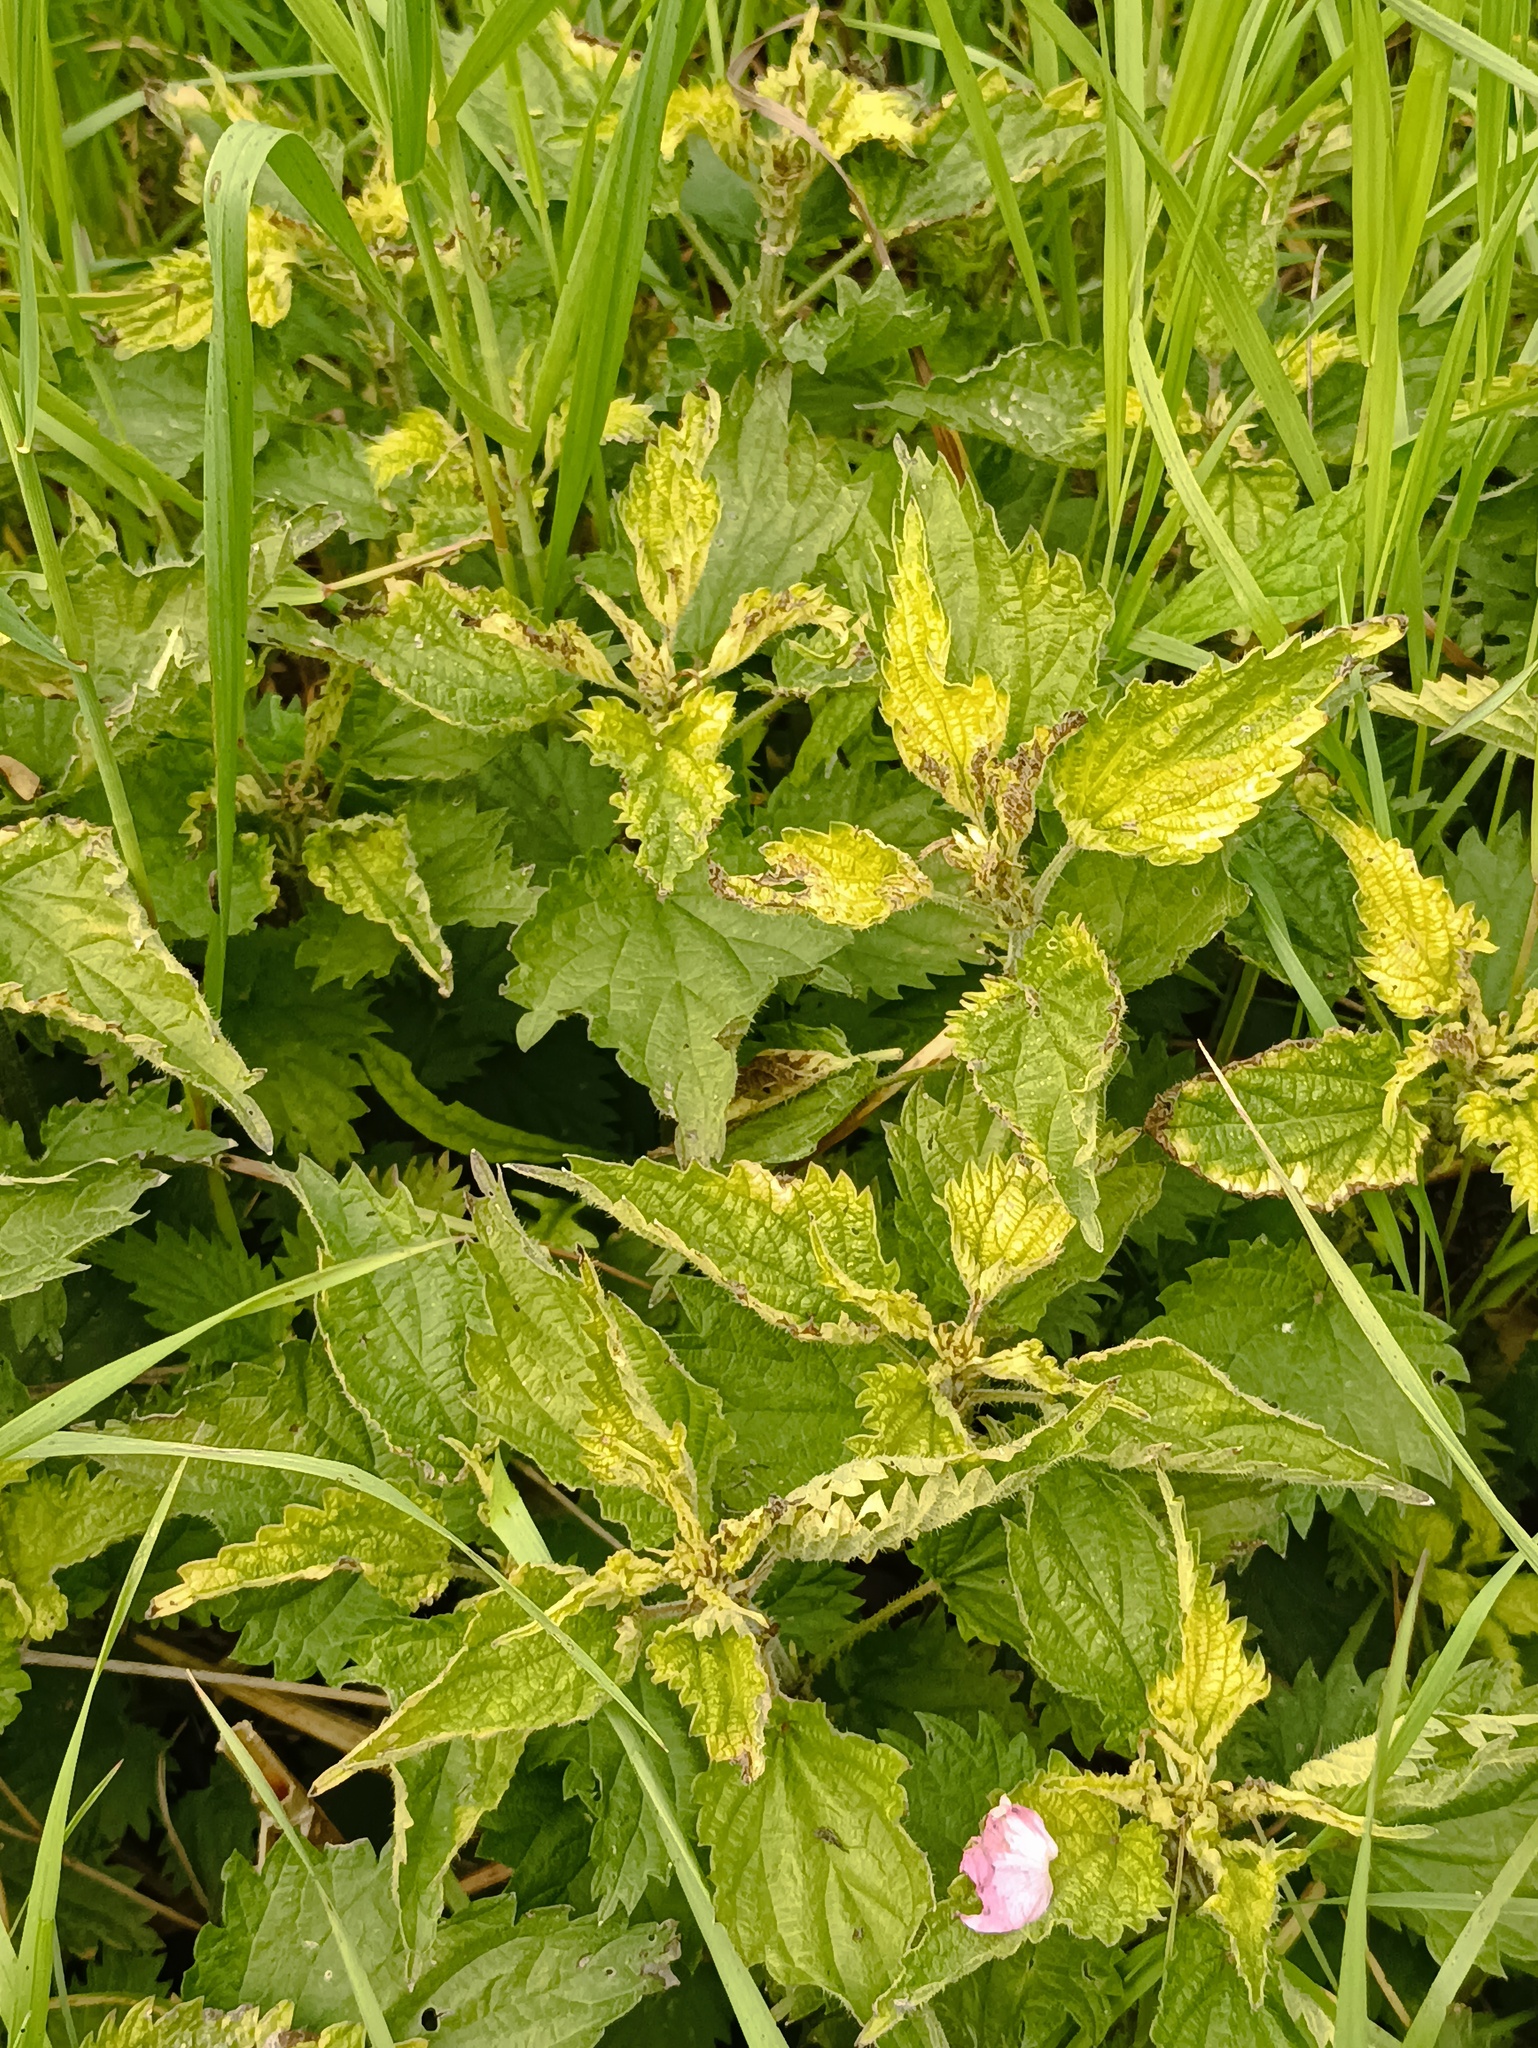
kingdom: Plantae
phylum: Tracheophyta
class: Magnoliopsida
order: Rosales
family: Urticaceae
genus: Urtica
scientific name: Urtica dioica
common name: Common nettle
